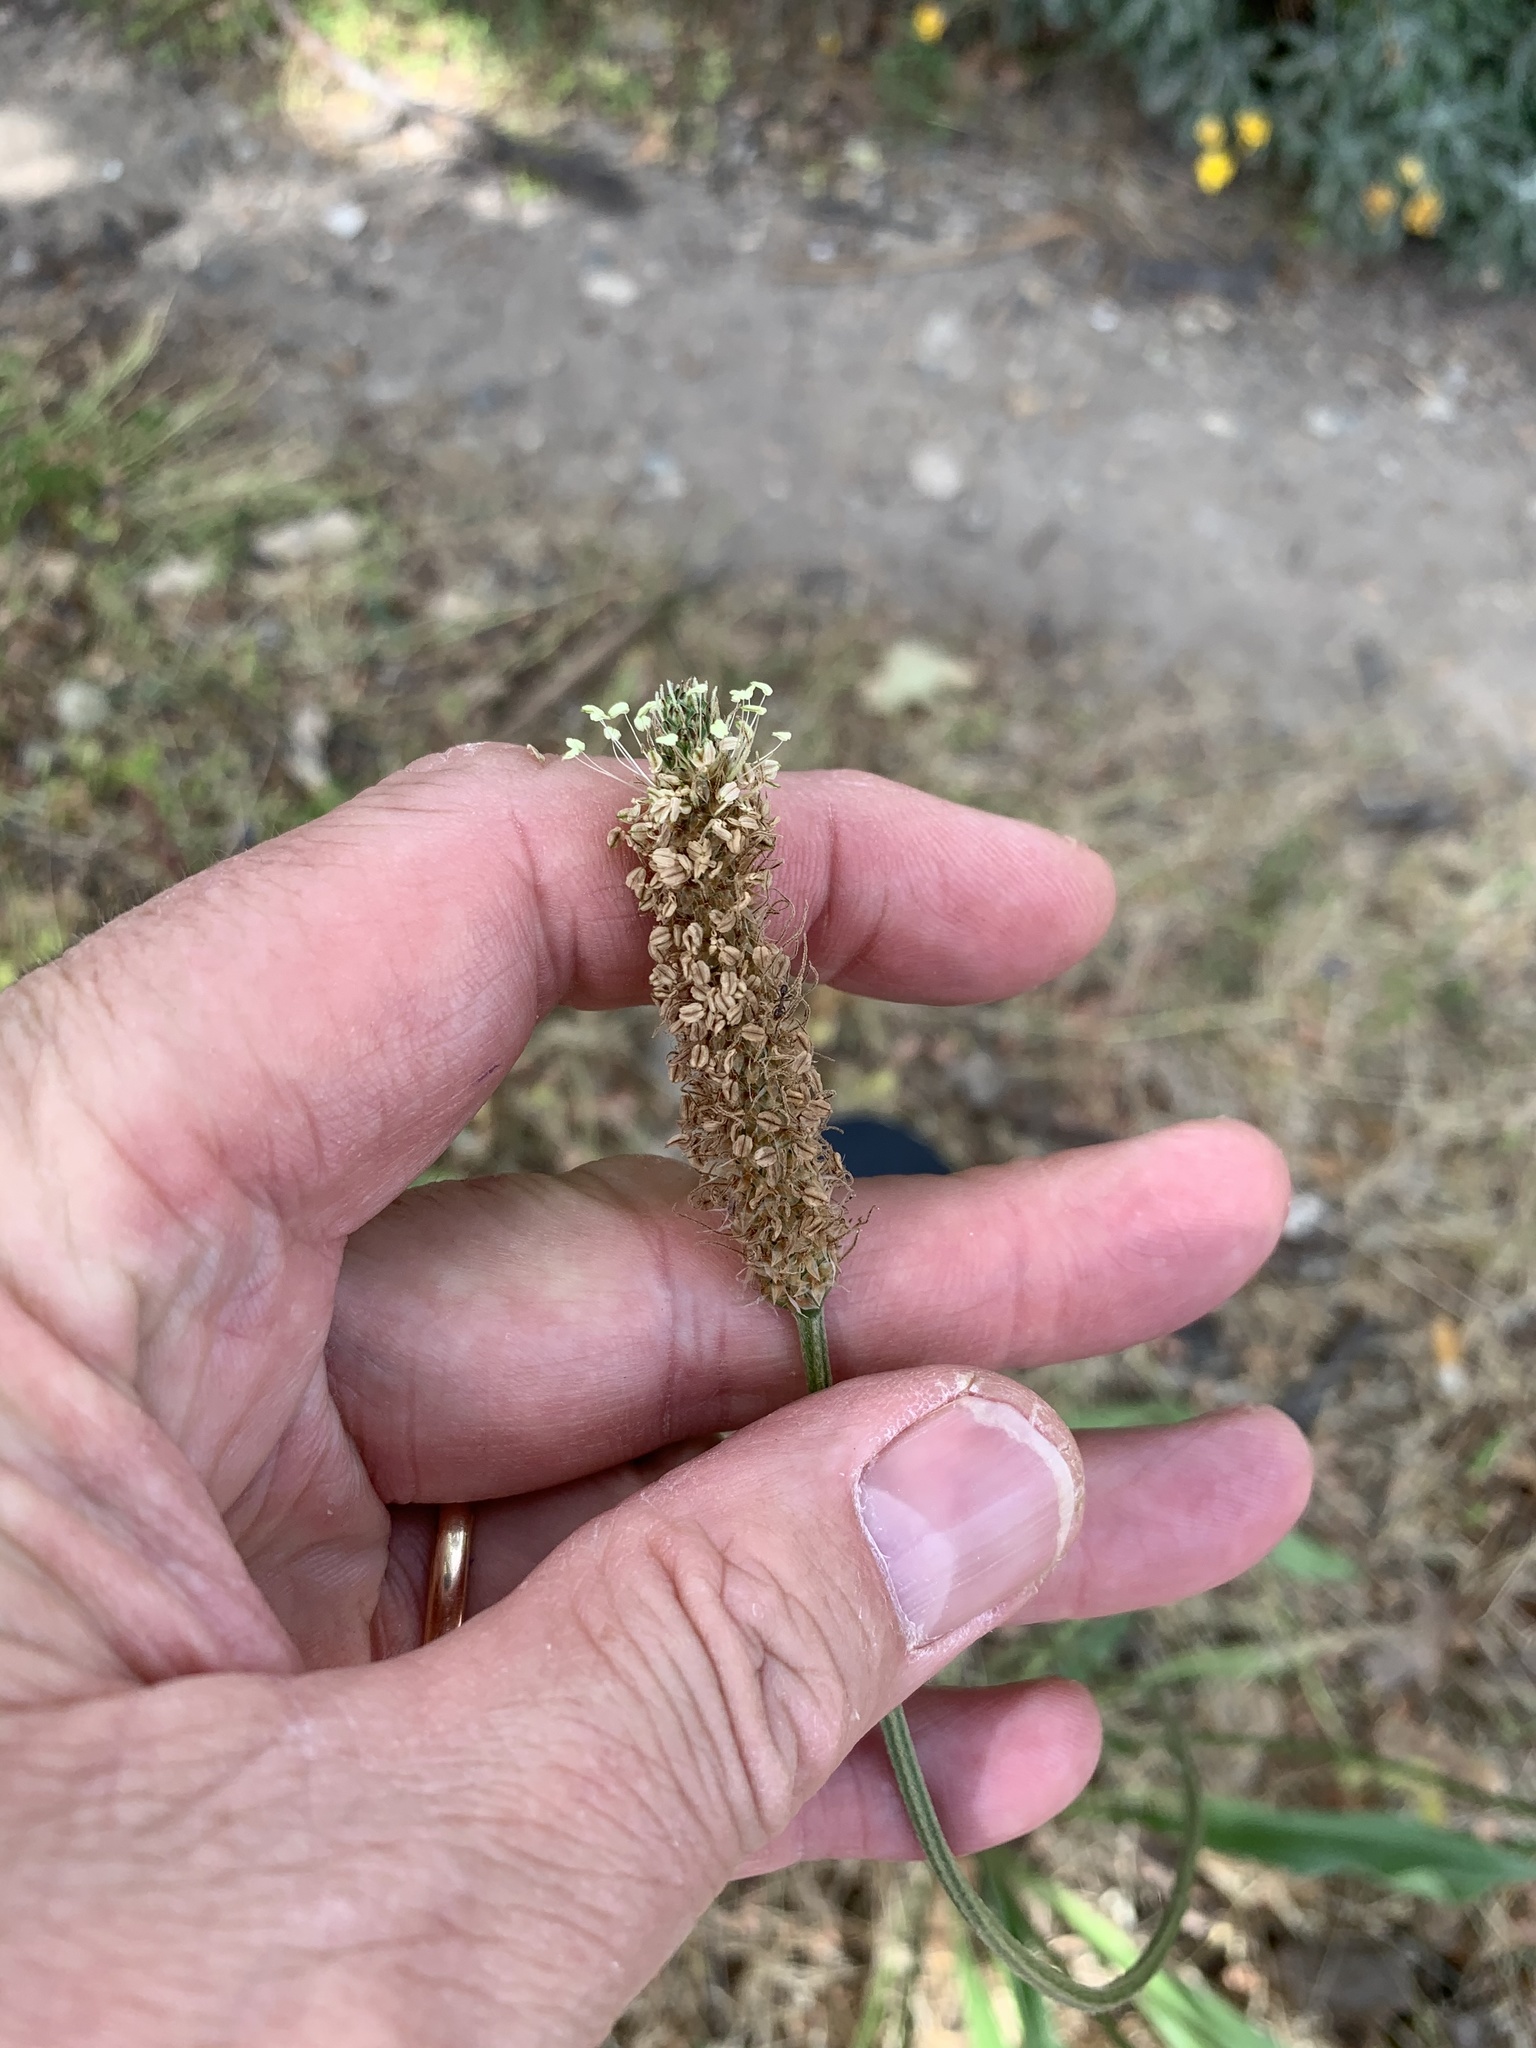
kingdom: Plantae
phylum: Tracheophyta
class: Magnoliopsida
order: Lamiales
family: Plantaginaceae
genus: Plantago
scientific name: Plantago lanceolata
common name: Ribwort plantain
